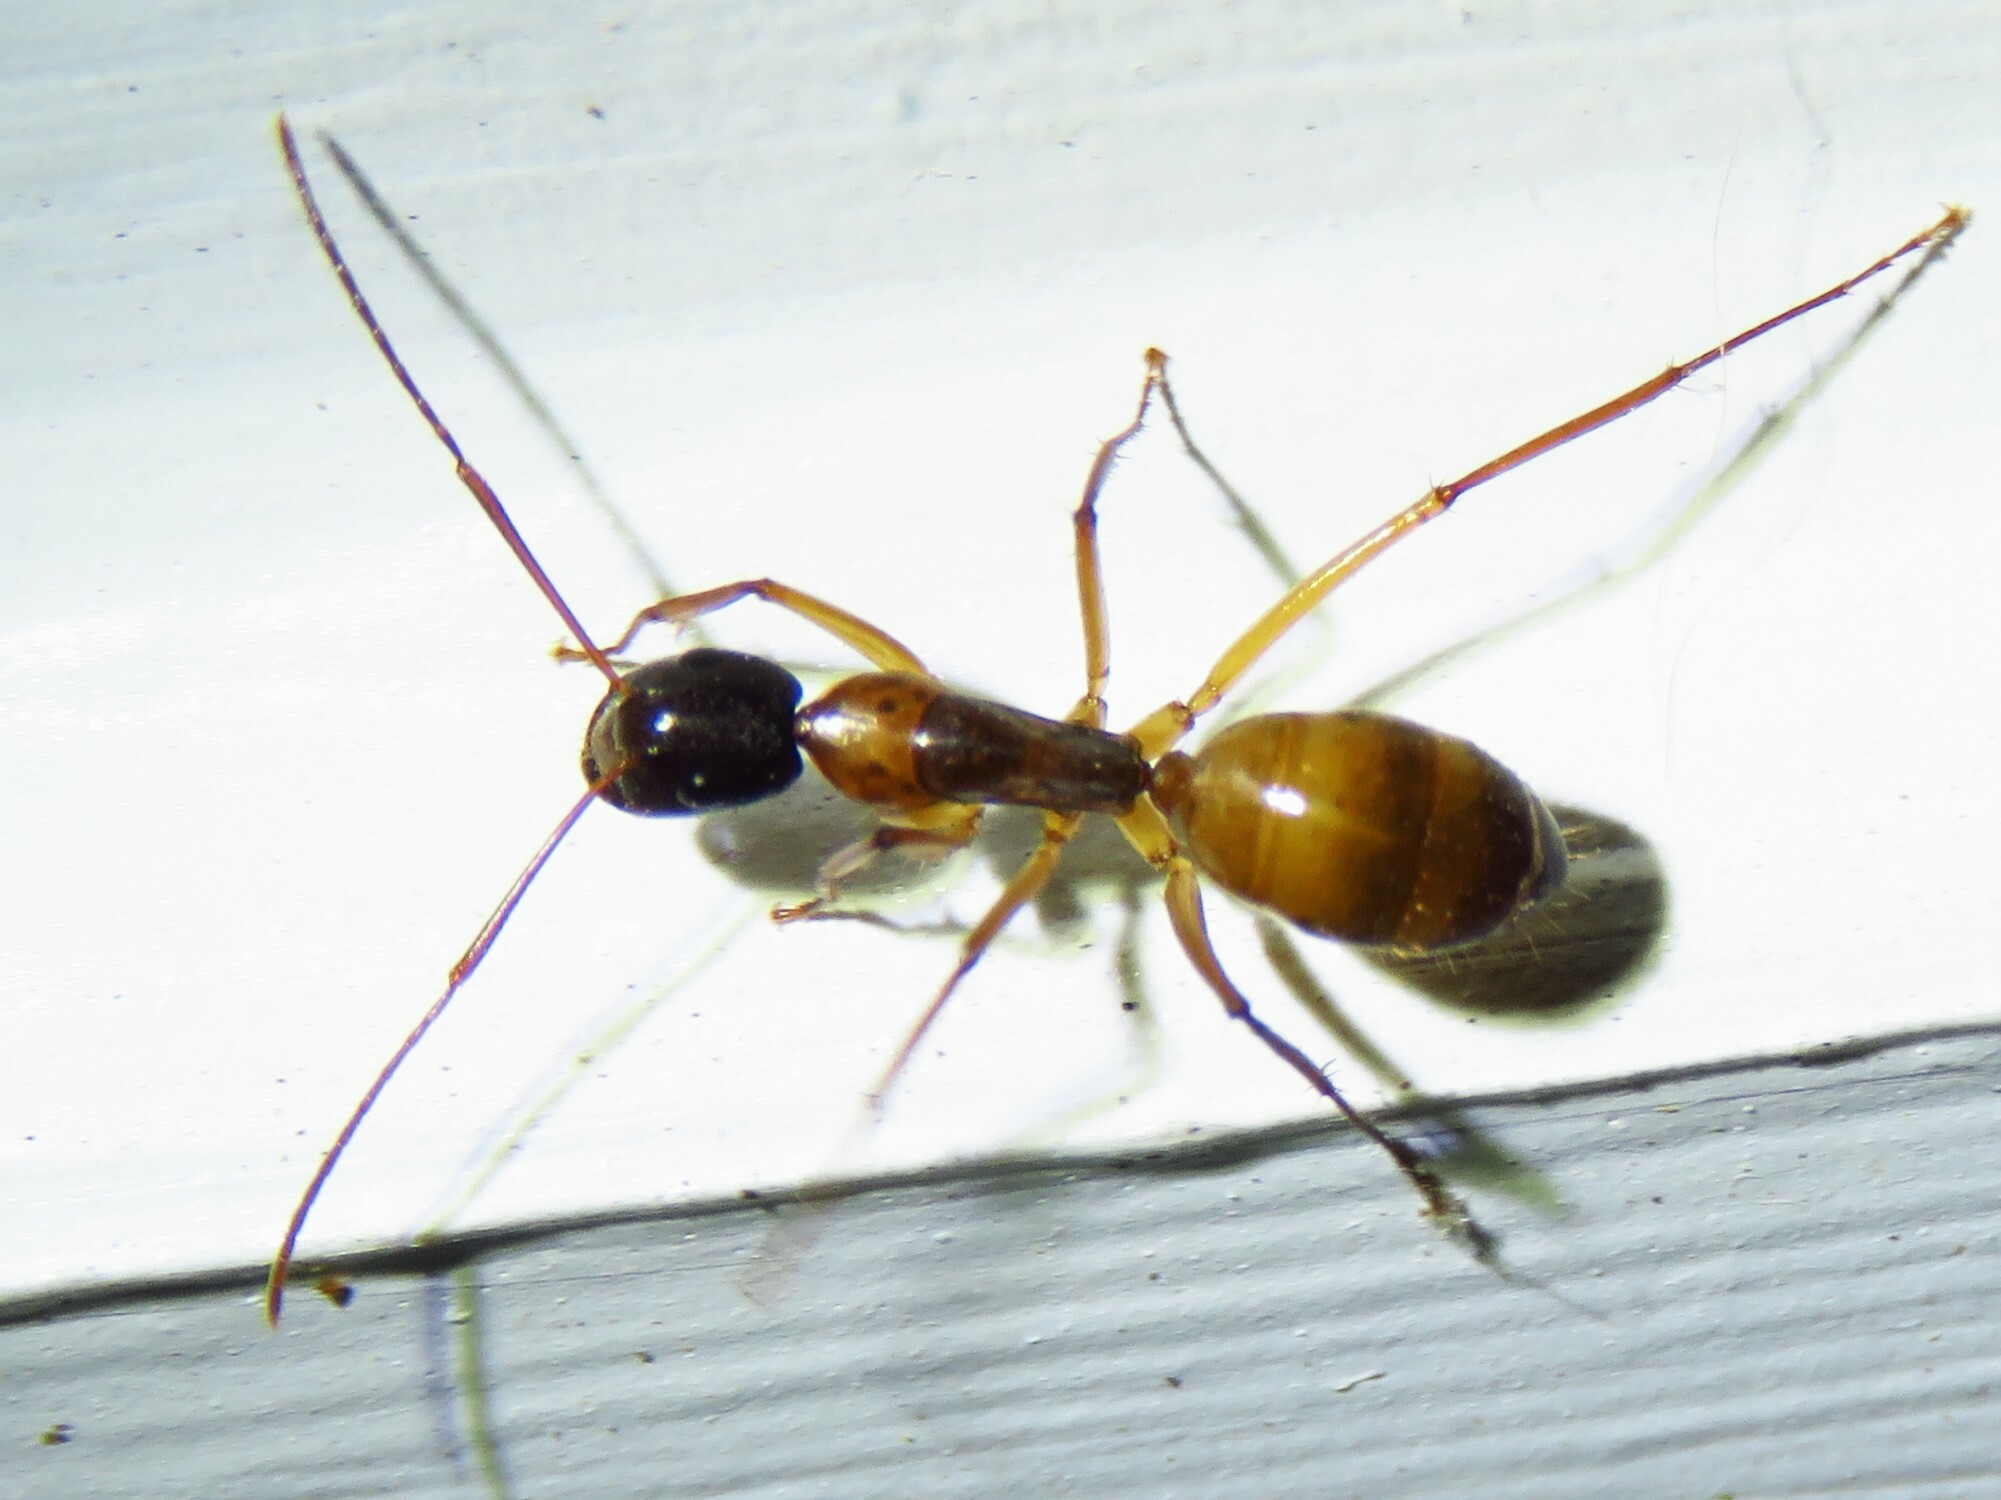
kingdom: Animalia
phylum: Arthropoda
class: Insecta
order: Hymenoptera
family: Formicidae
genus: Camponotus
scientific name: Camponotus americanus
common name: American carpenter ant
